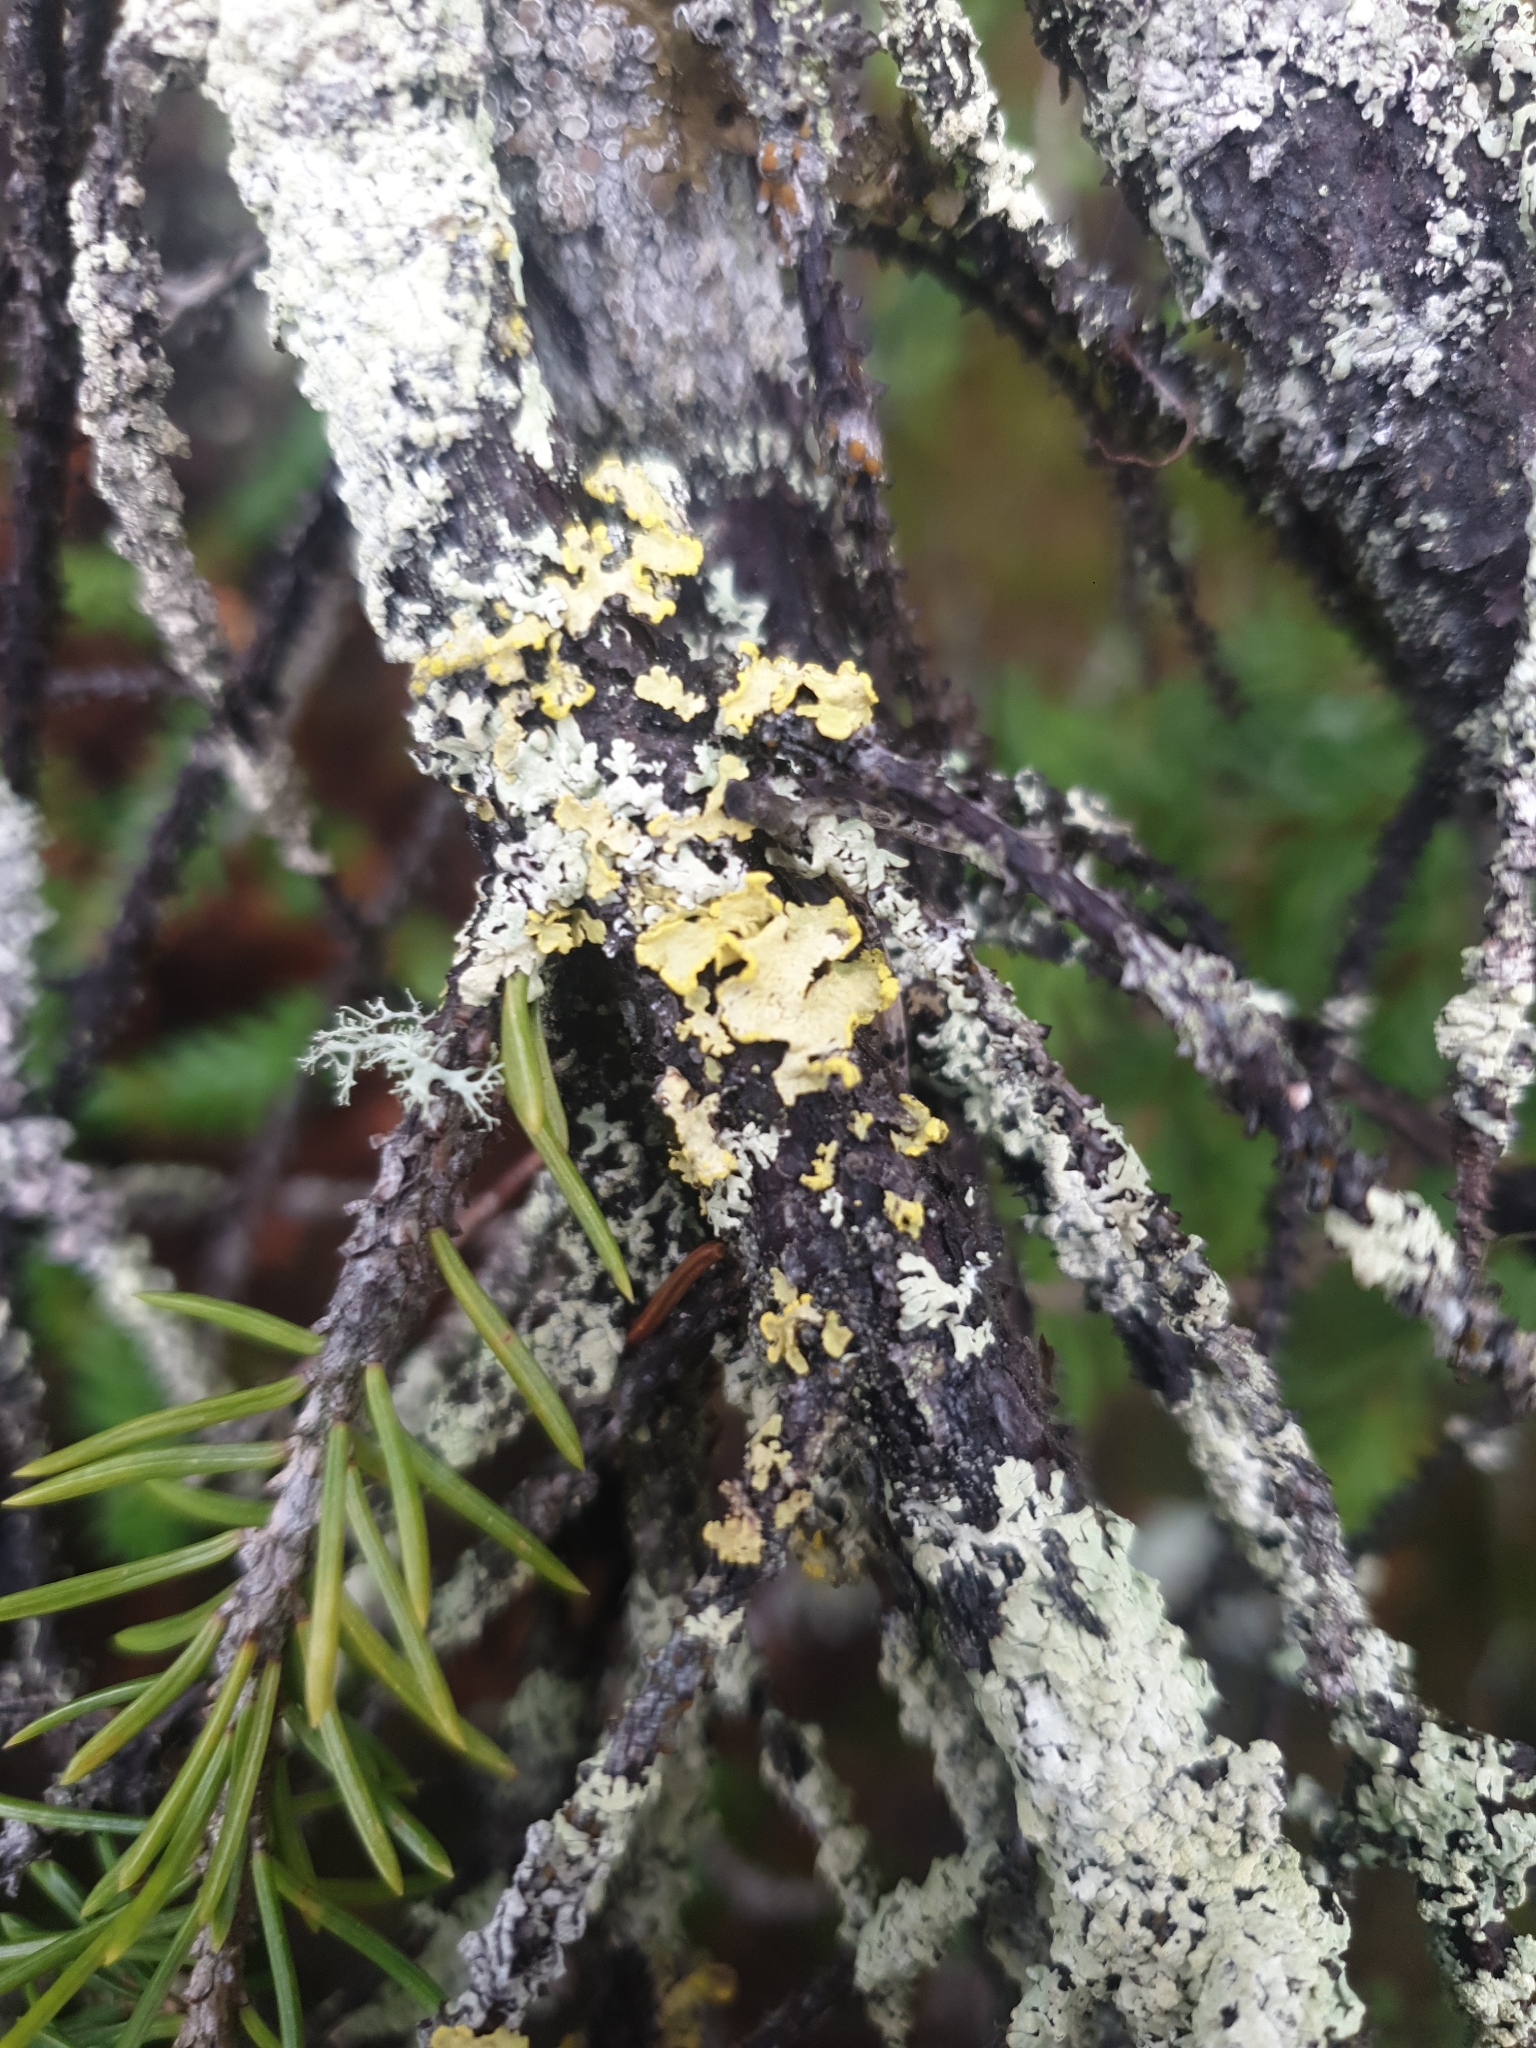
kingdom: Fungi
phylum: Ascomycota
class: Lecanoromycetes
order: Lecanorales
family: Parmeliaceae
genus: Vulpicida
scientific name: Vulpicida pinastri
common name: Powdered sunshine lichen
